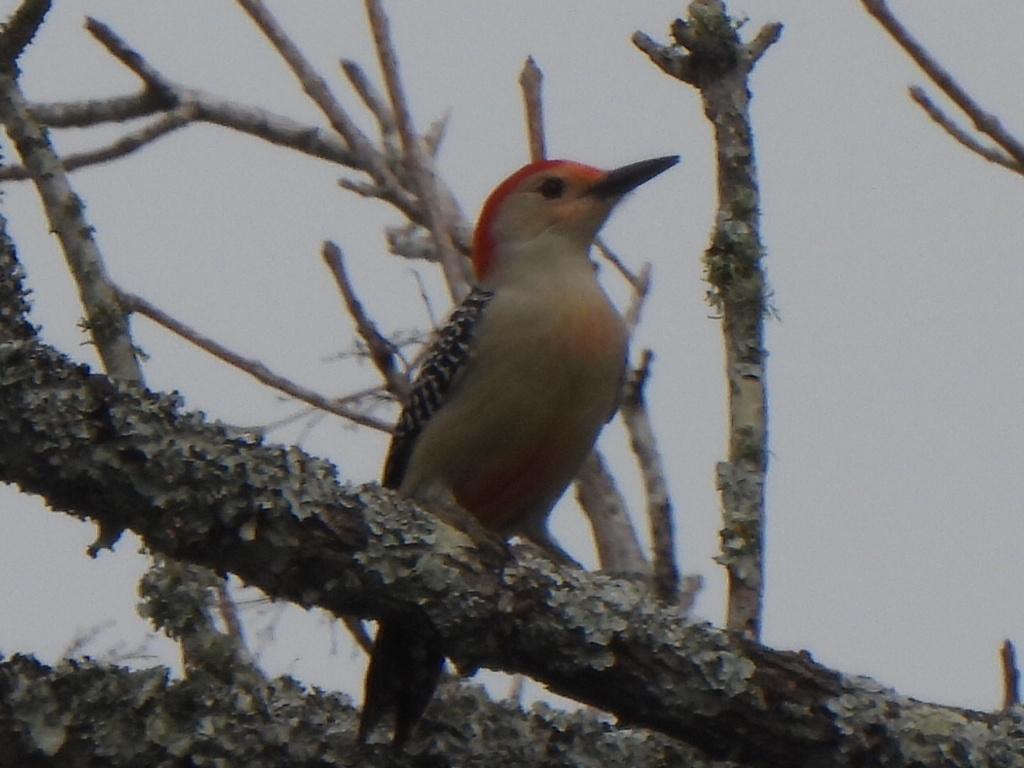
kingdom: Animalia
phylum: Chordata
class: Aves
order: Piciformes
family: Picidae
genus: Melanerpes
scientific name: Melanerpes carolinus
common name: Red-bellied woodpecker
